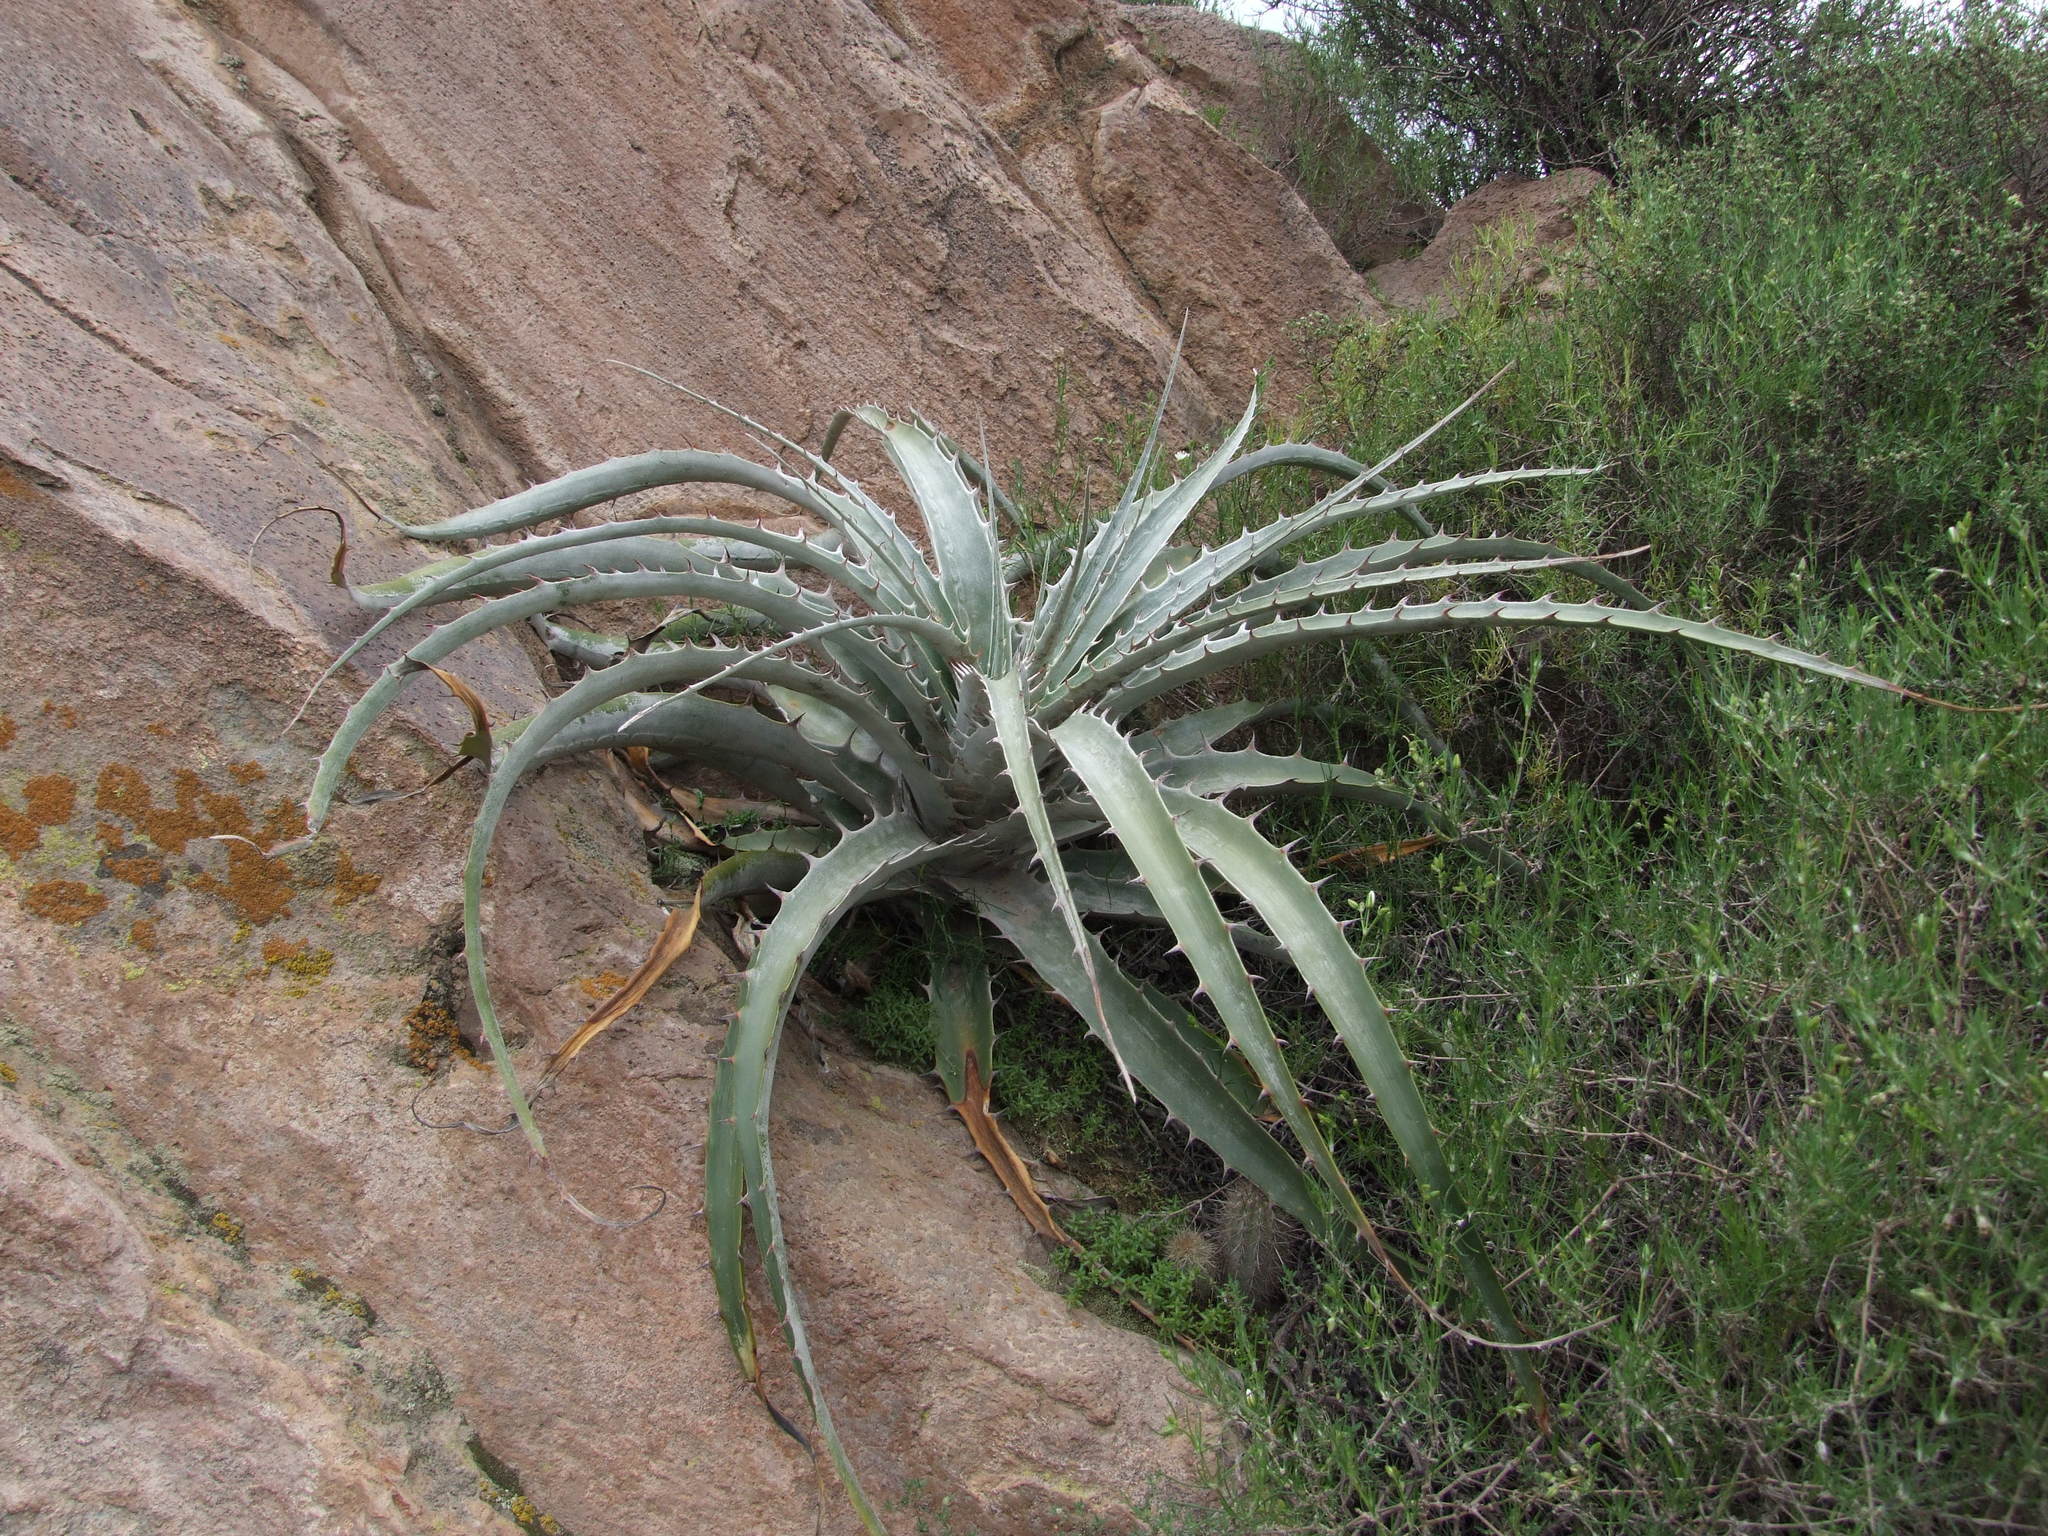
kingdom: Plantae
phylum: Tracheophyta
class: Liliopsida
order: Poales
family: Bromeliaceae
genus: Puya
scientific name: Puya cylindrica
